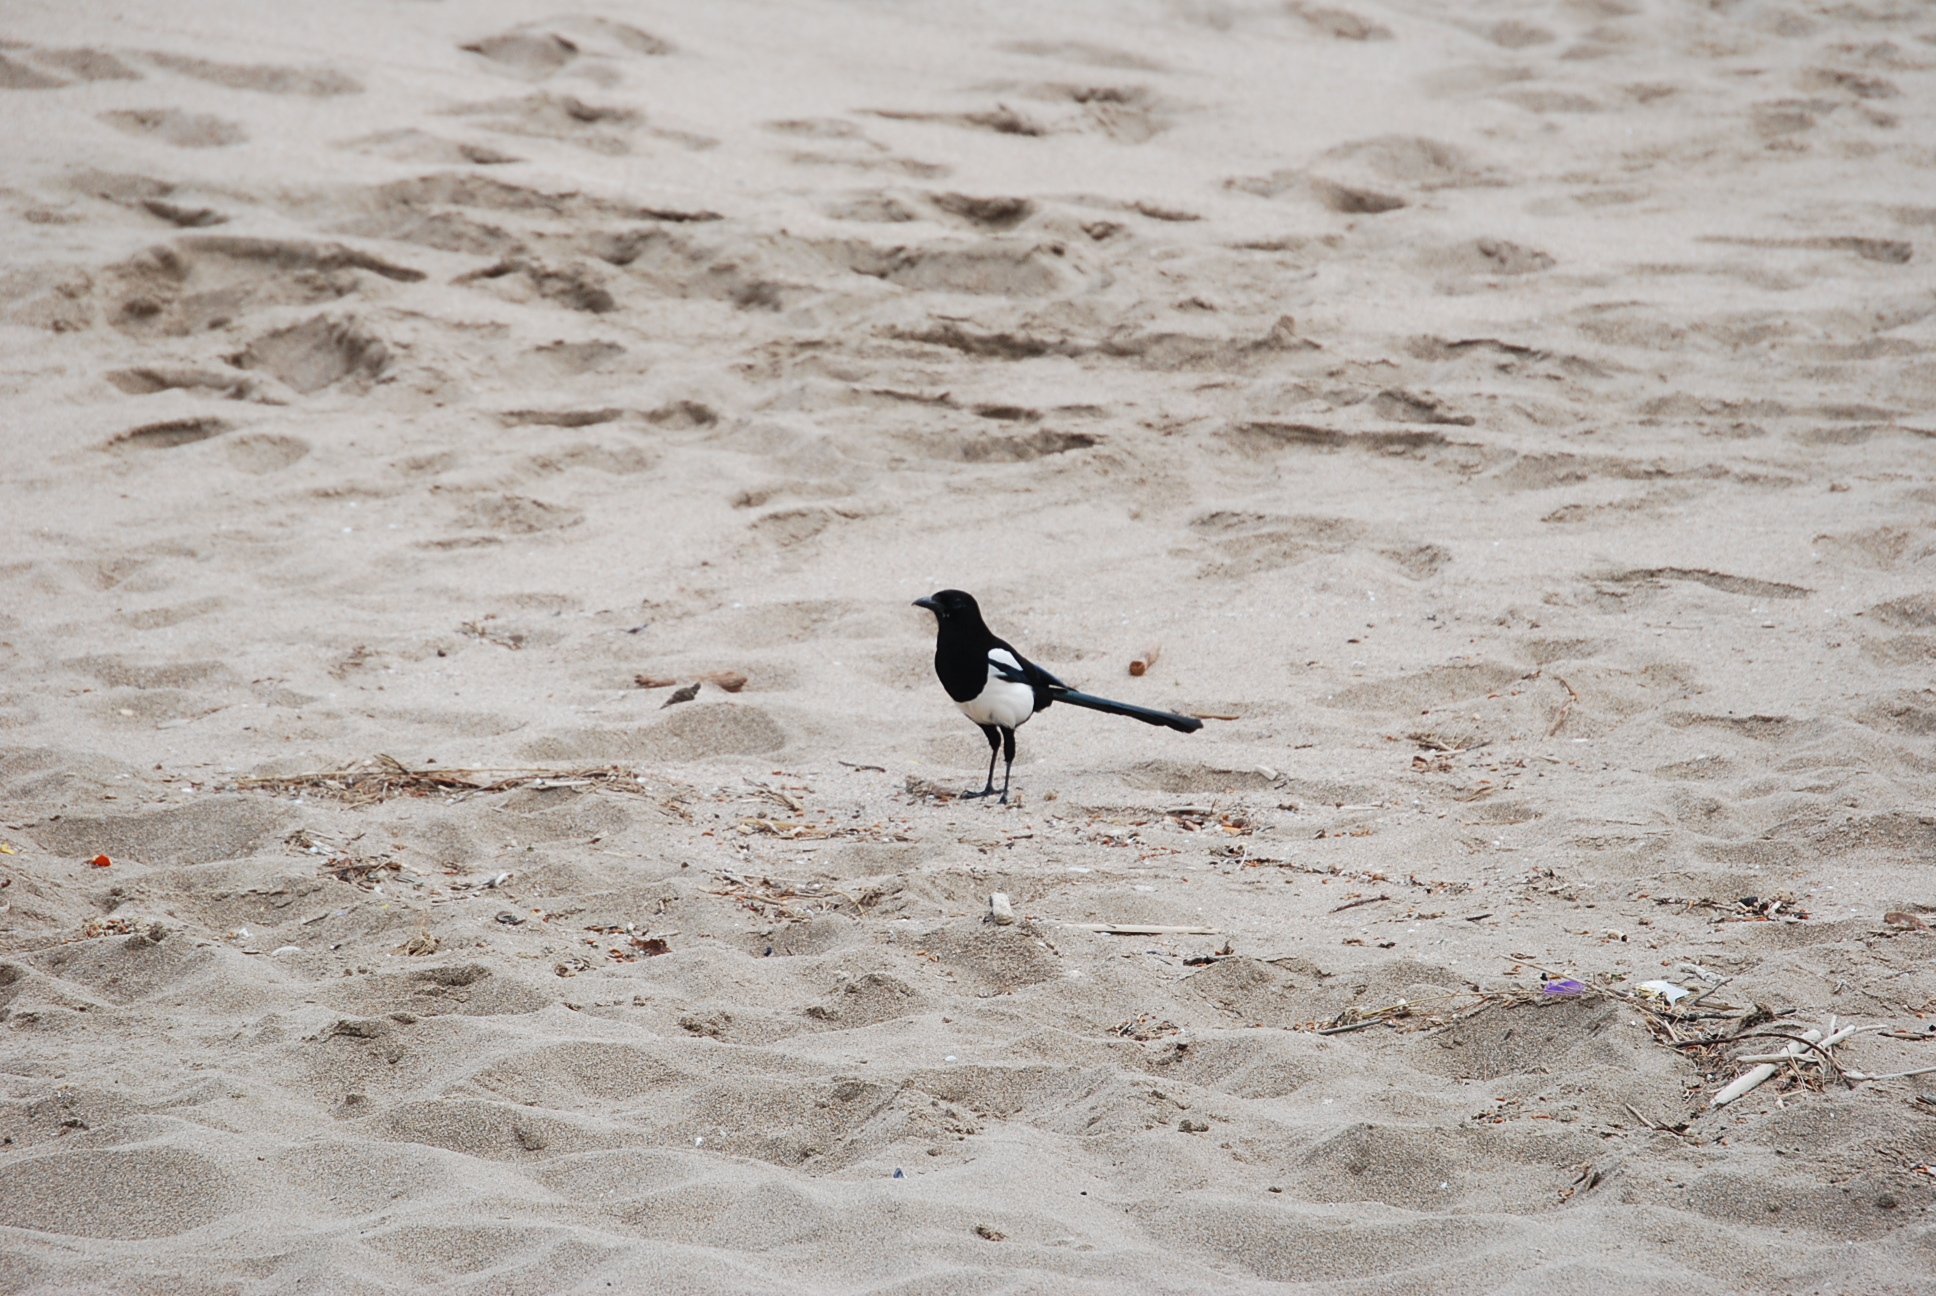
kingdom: Animalia
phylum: Chordata
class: Aves
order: Passeriformes
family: Corvidae
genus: Pica
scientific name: Pica pica
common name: Eurasian magpie
